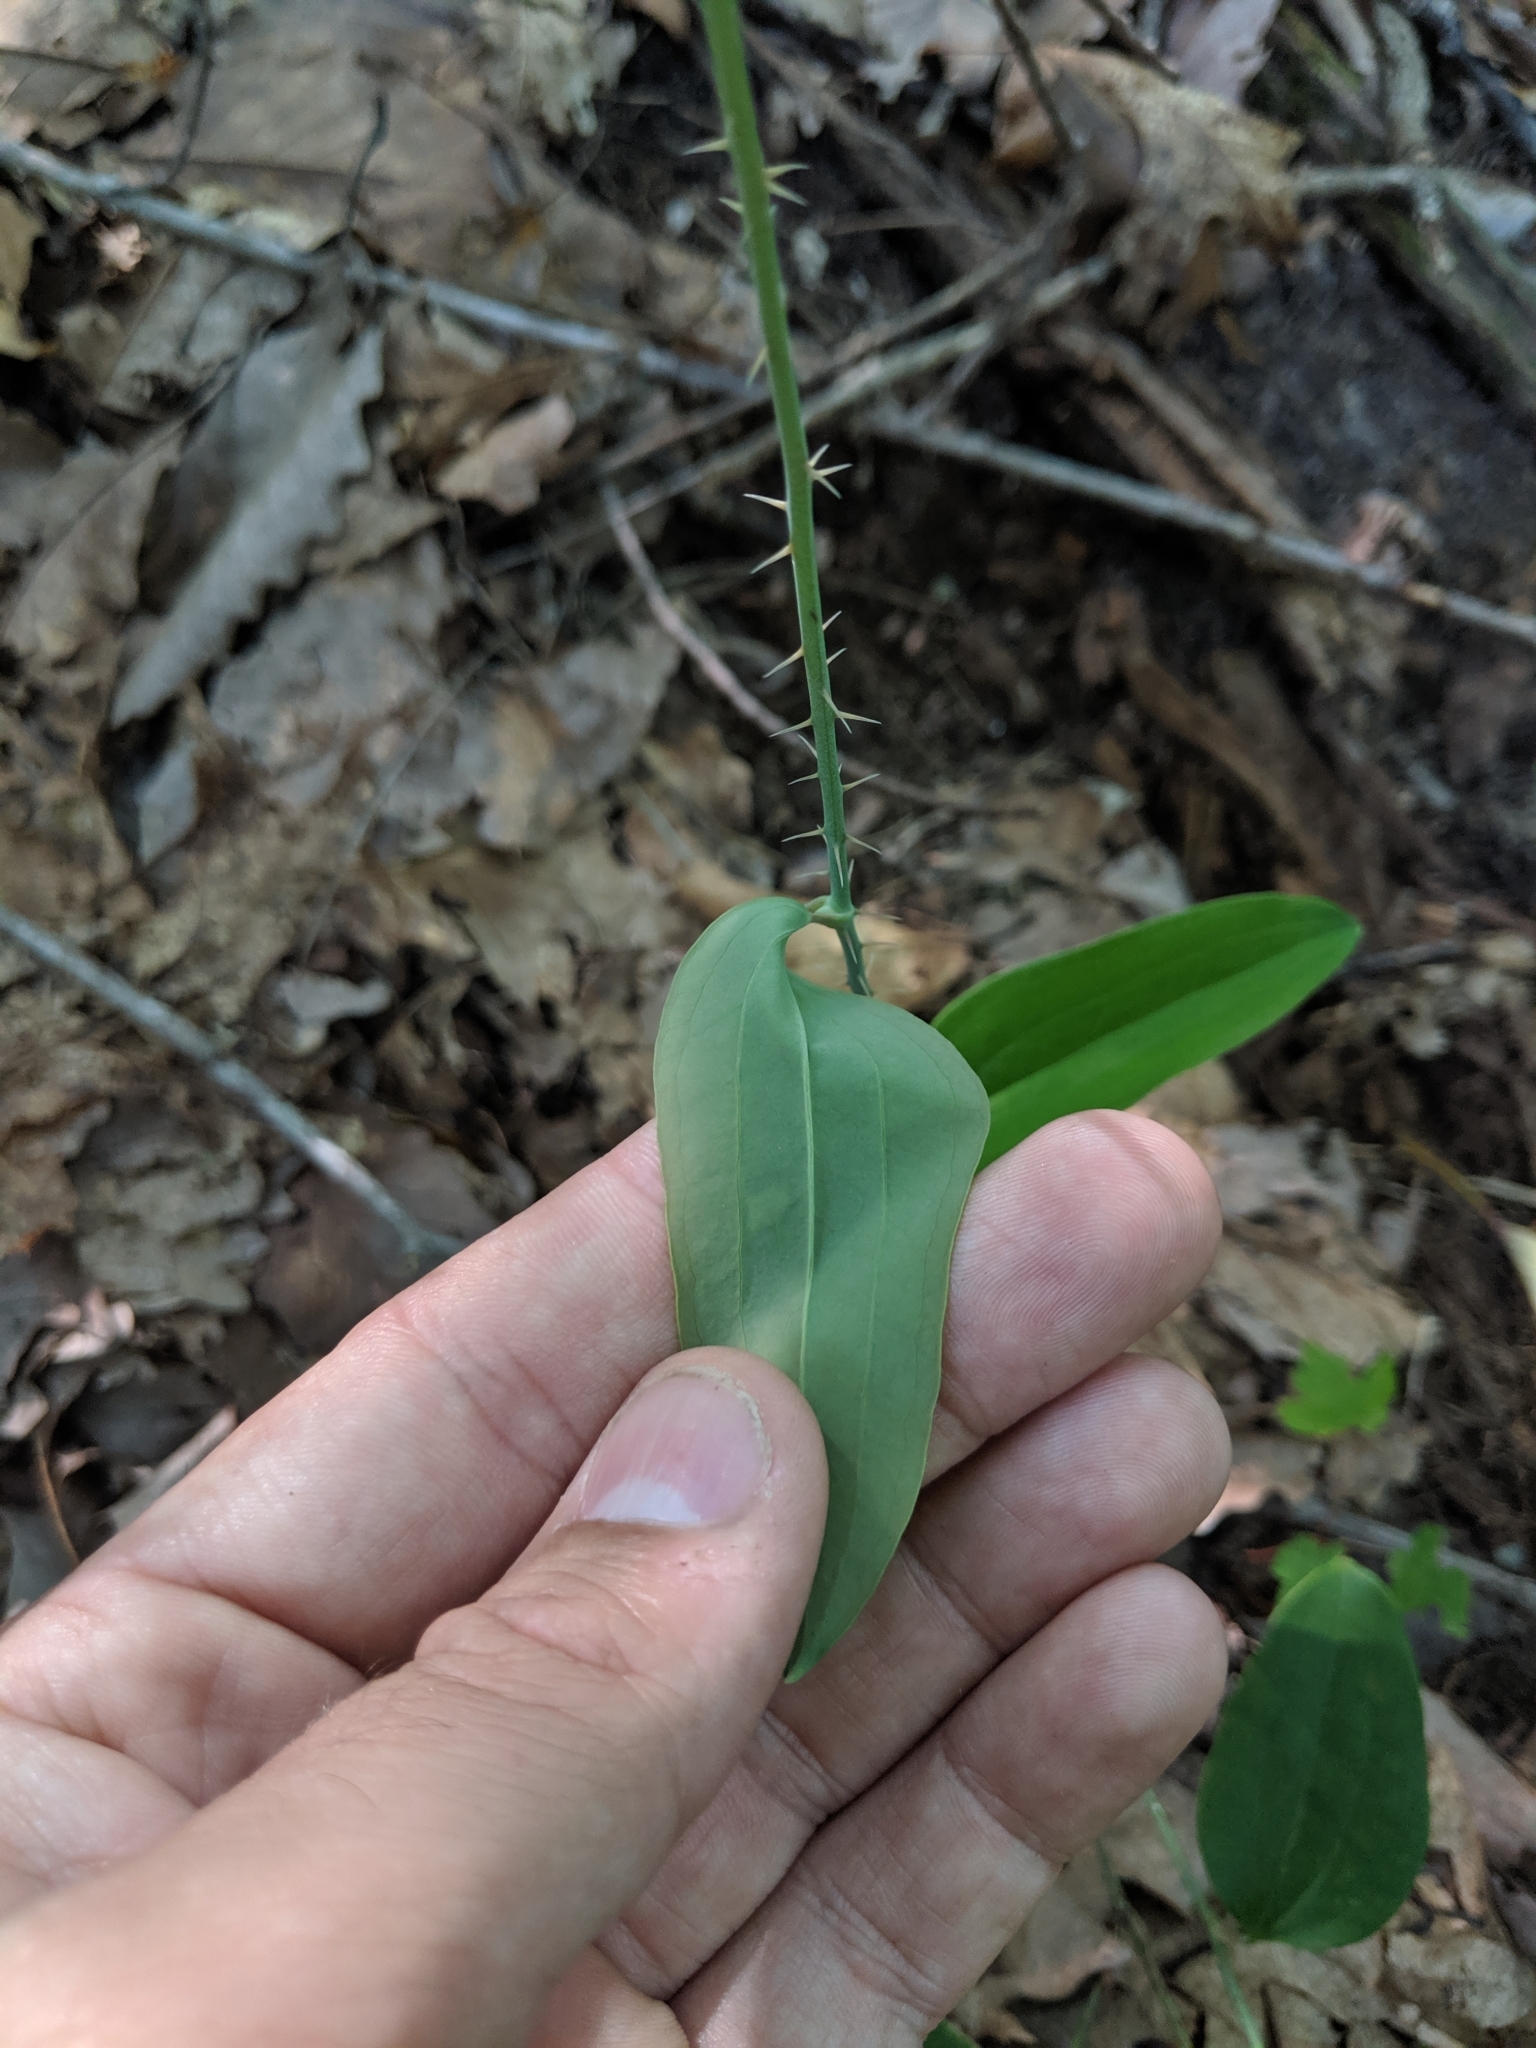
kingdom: Plantae
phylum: Tracheophyta
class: Liliopsida
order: Liliales
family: Smilacaceae
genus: Smilax
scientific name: Smilax glauca
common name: Cat greenbrier
